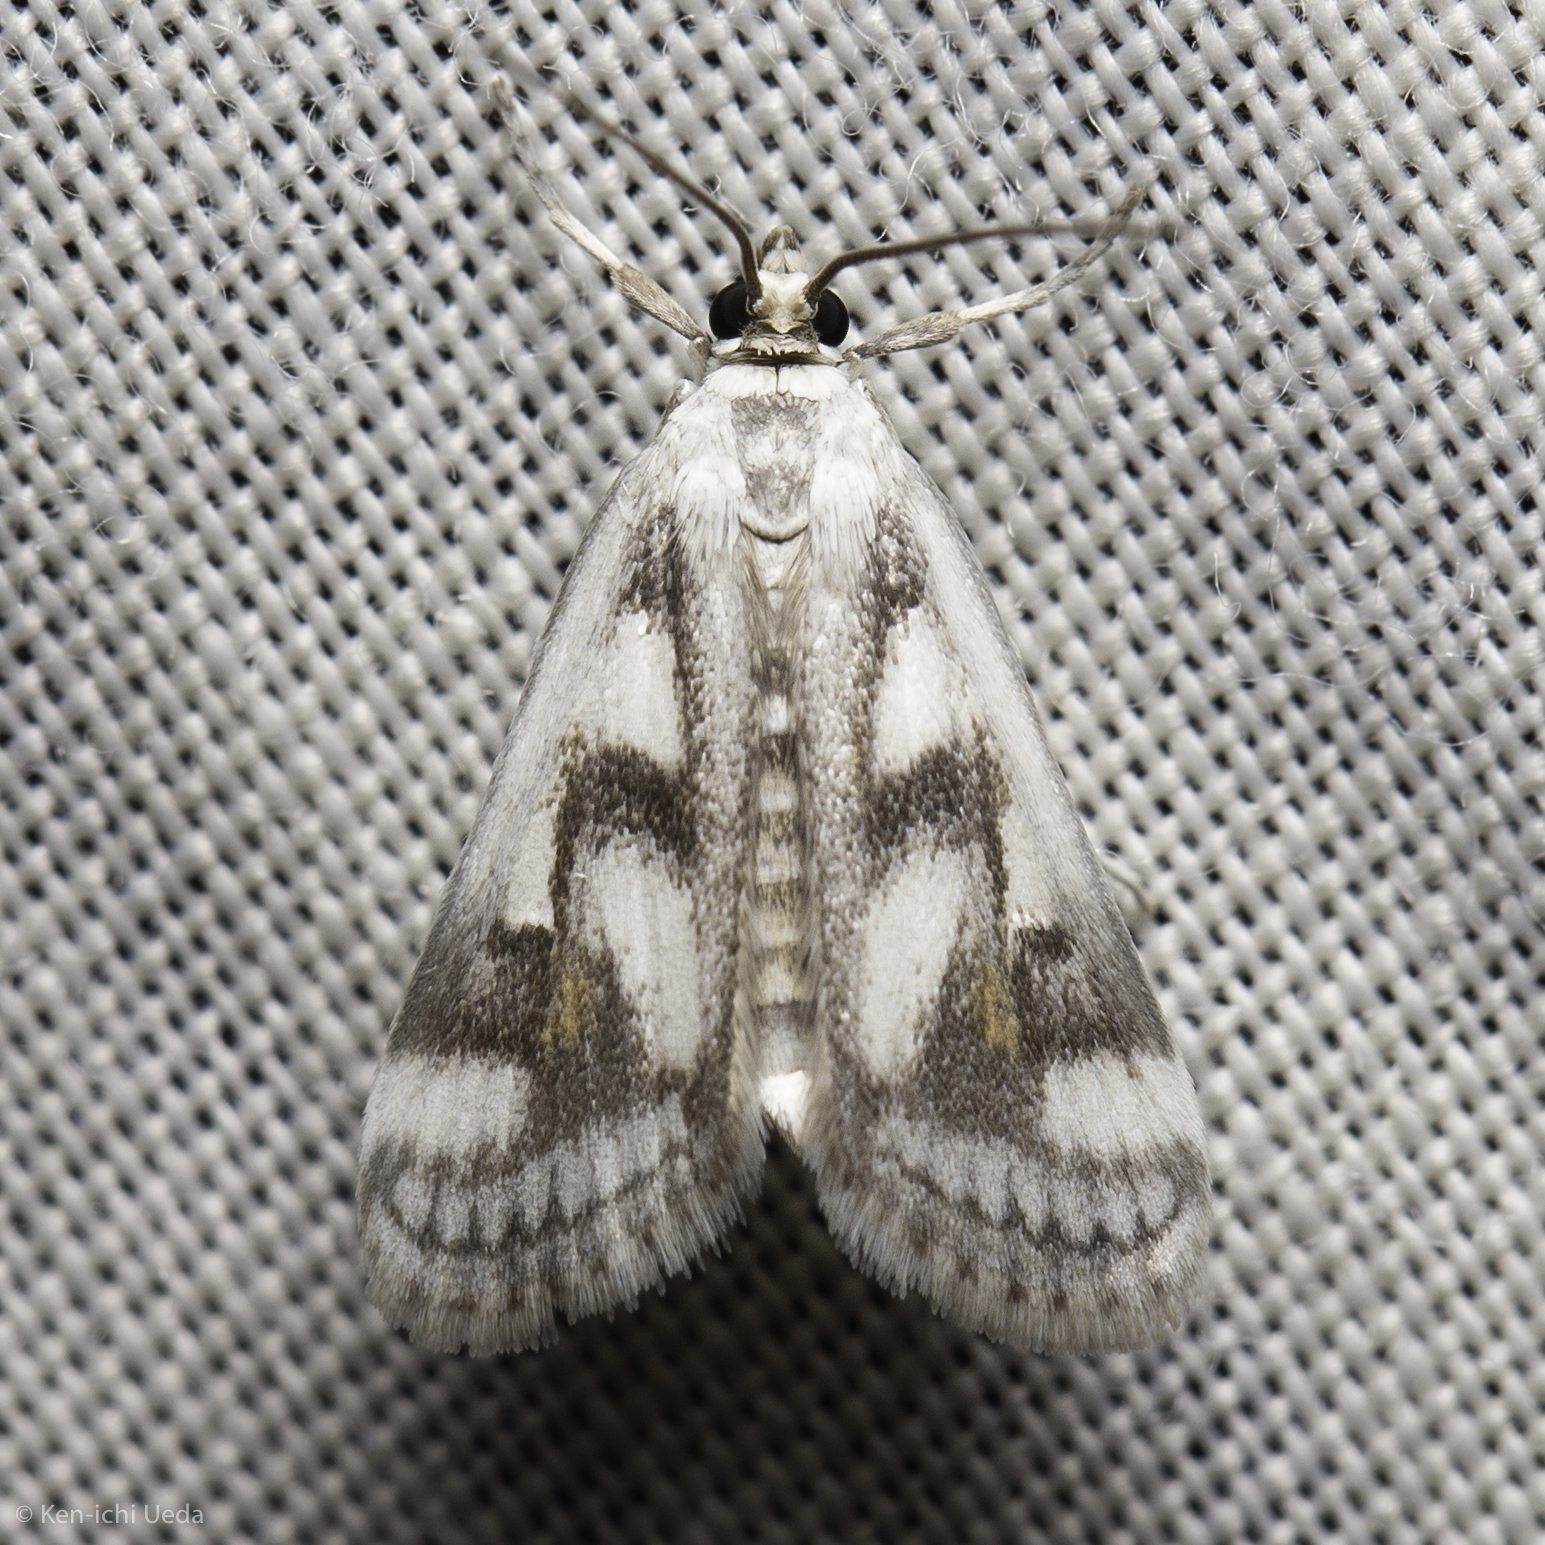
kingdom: Animalia
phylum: Arthropoda
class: Insecta
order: Lepidoptera
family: Crambidae
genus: Parapoynx
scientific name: Parapoynx maculalis
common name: Polymorphic pondweed moth
